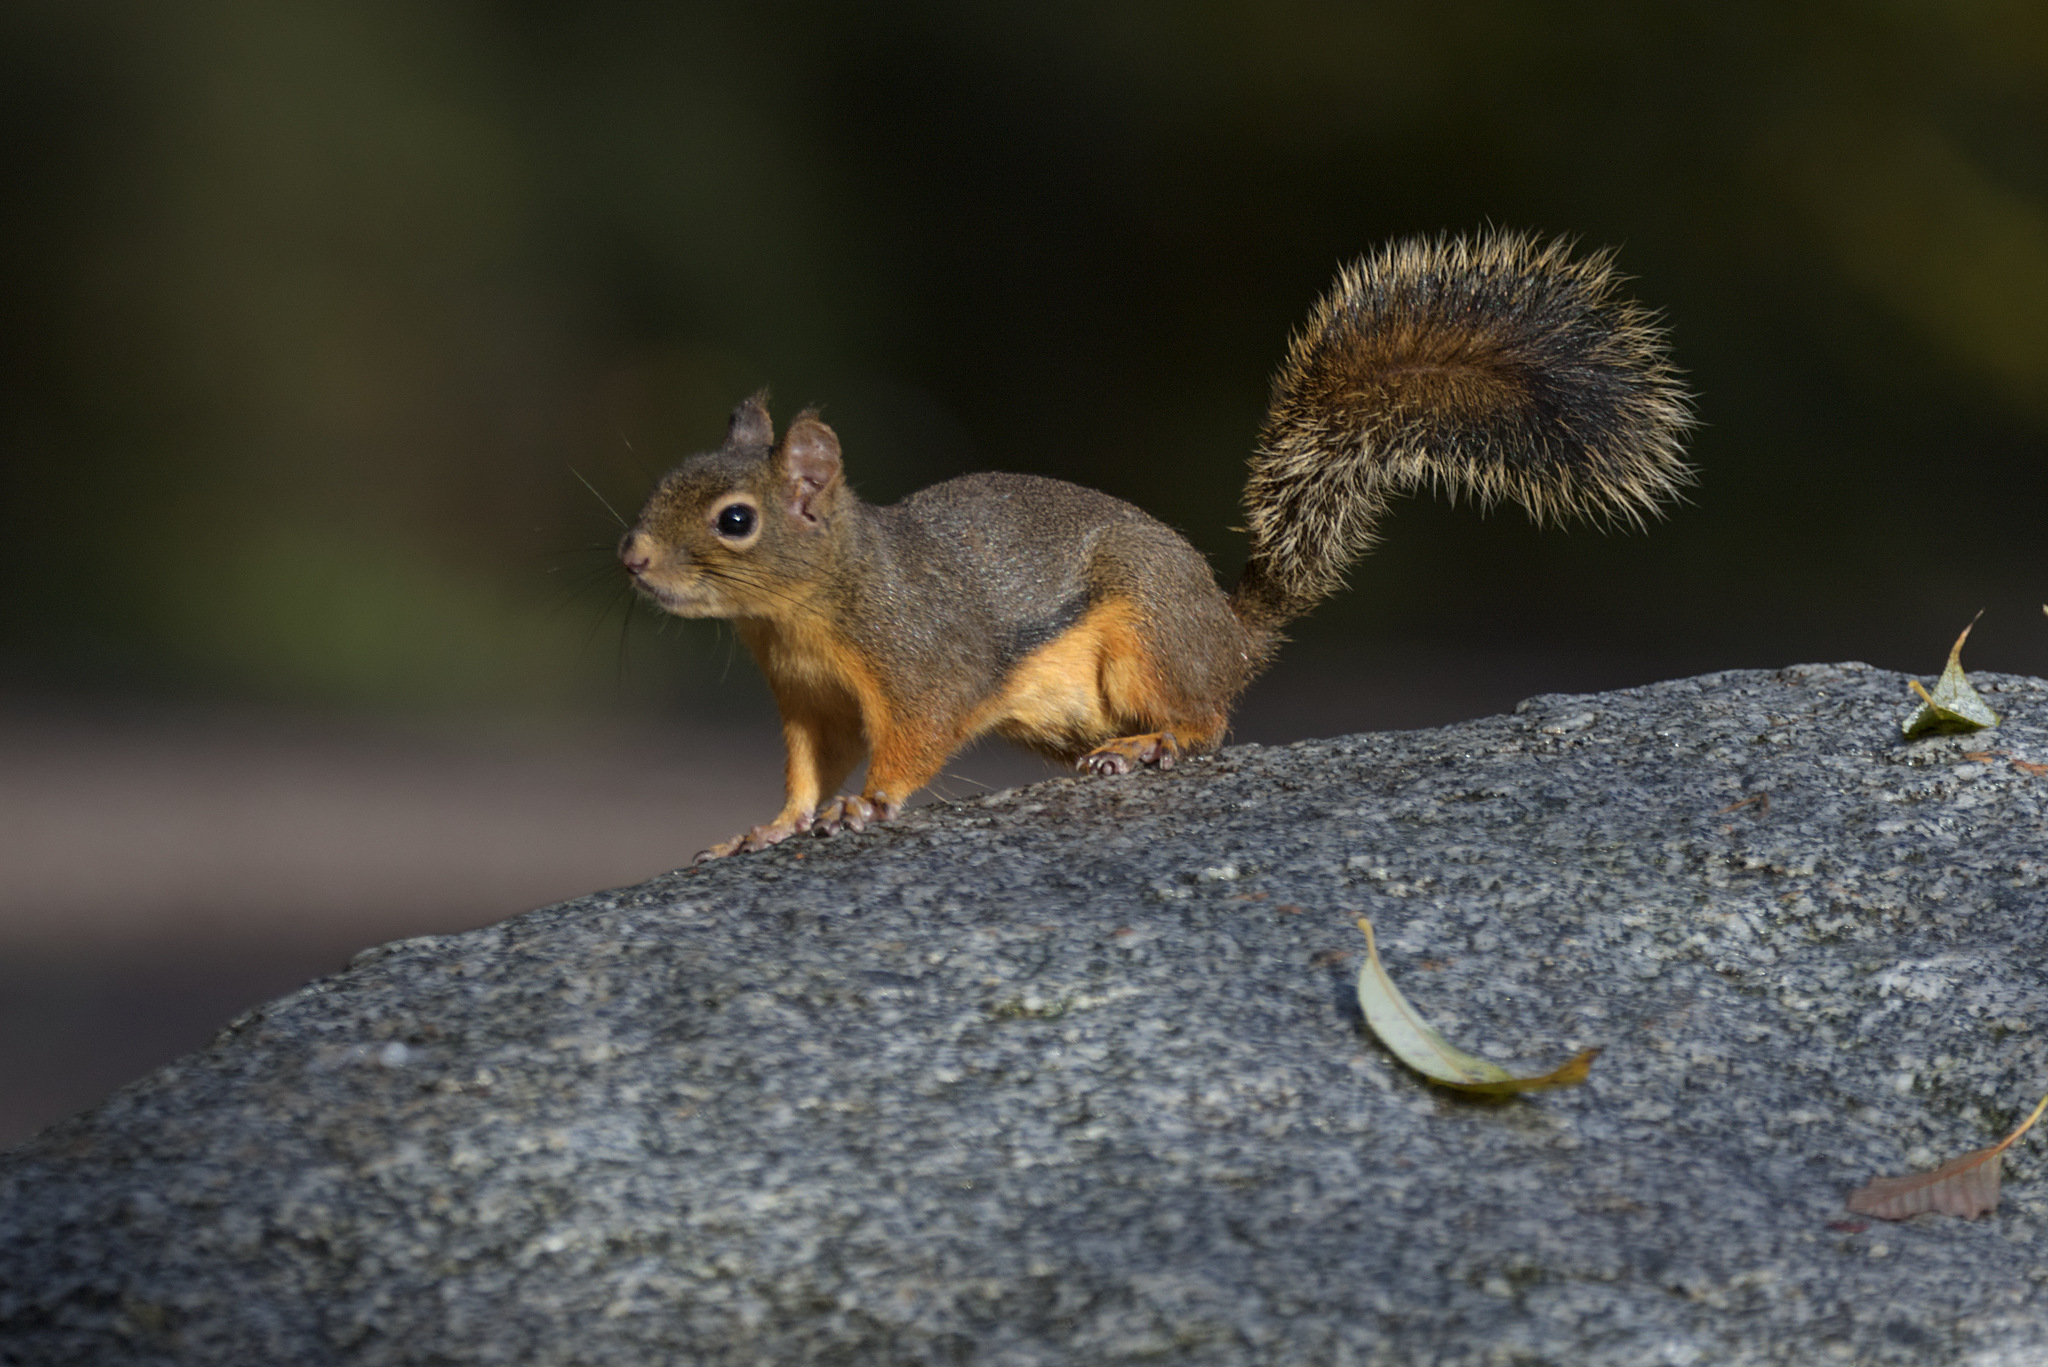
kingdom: Animalia
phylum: Chordata
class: Mammalia
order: Rodentia
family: Sciuridae
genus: Tamiasciurus
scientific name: Tamiasciurus douglasii
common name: Douglas's squirrel
